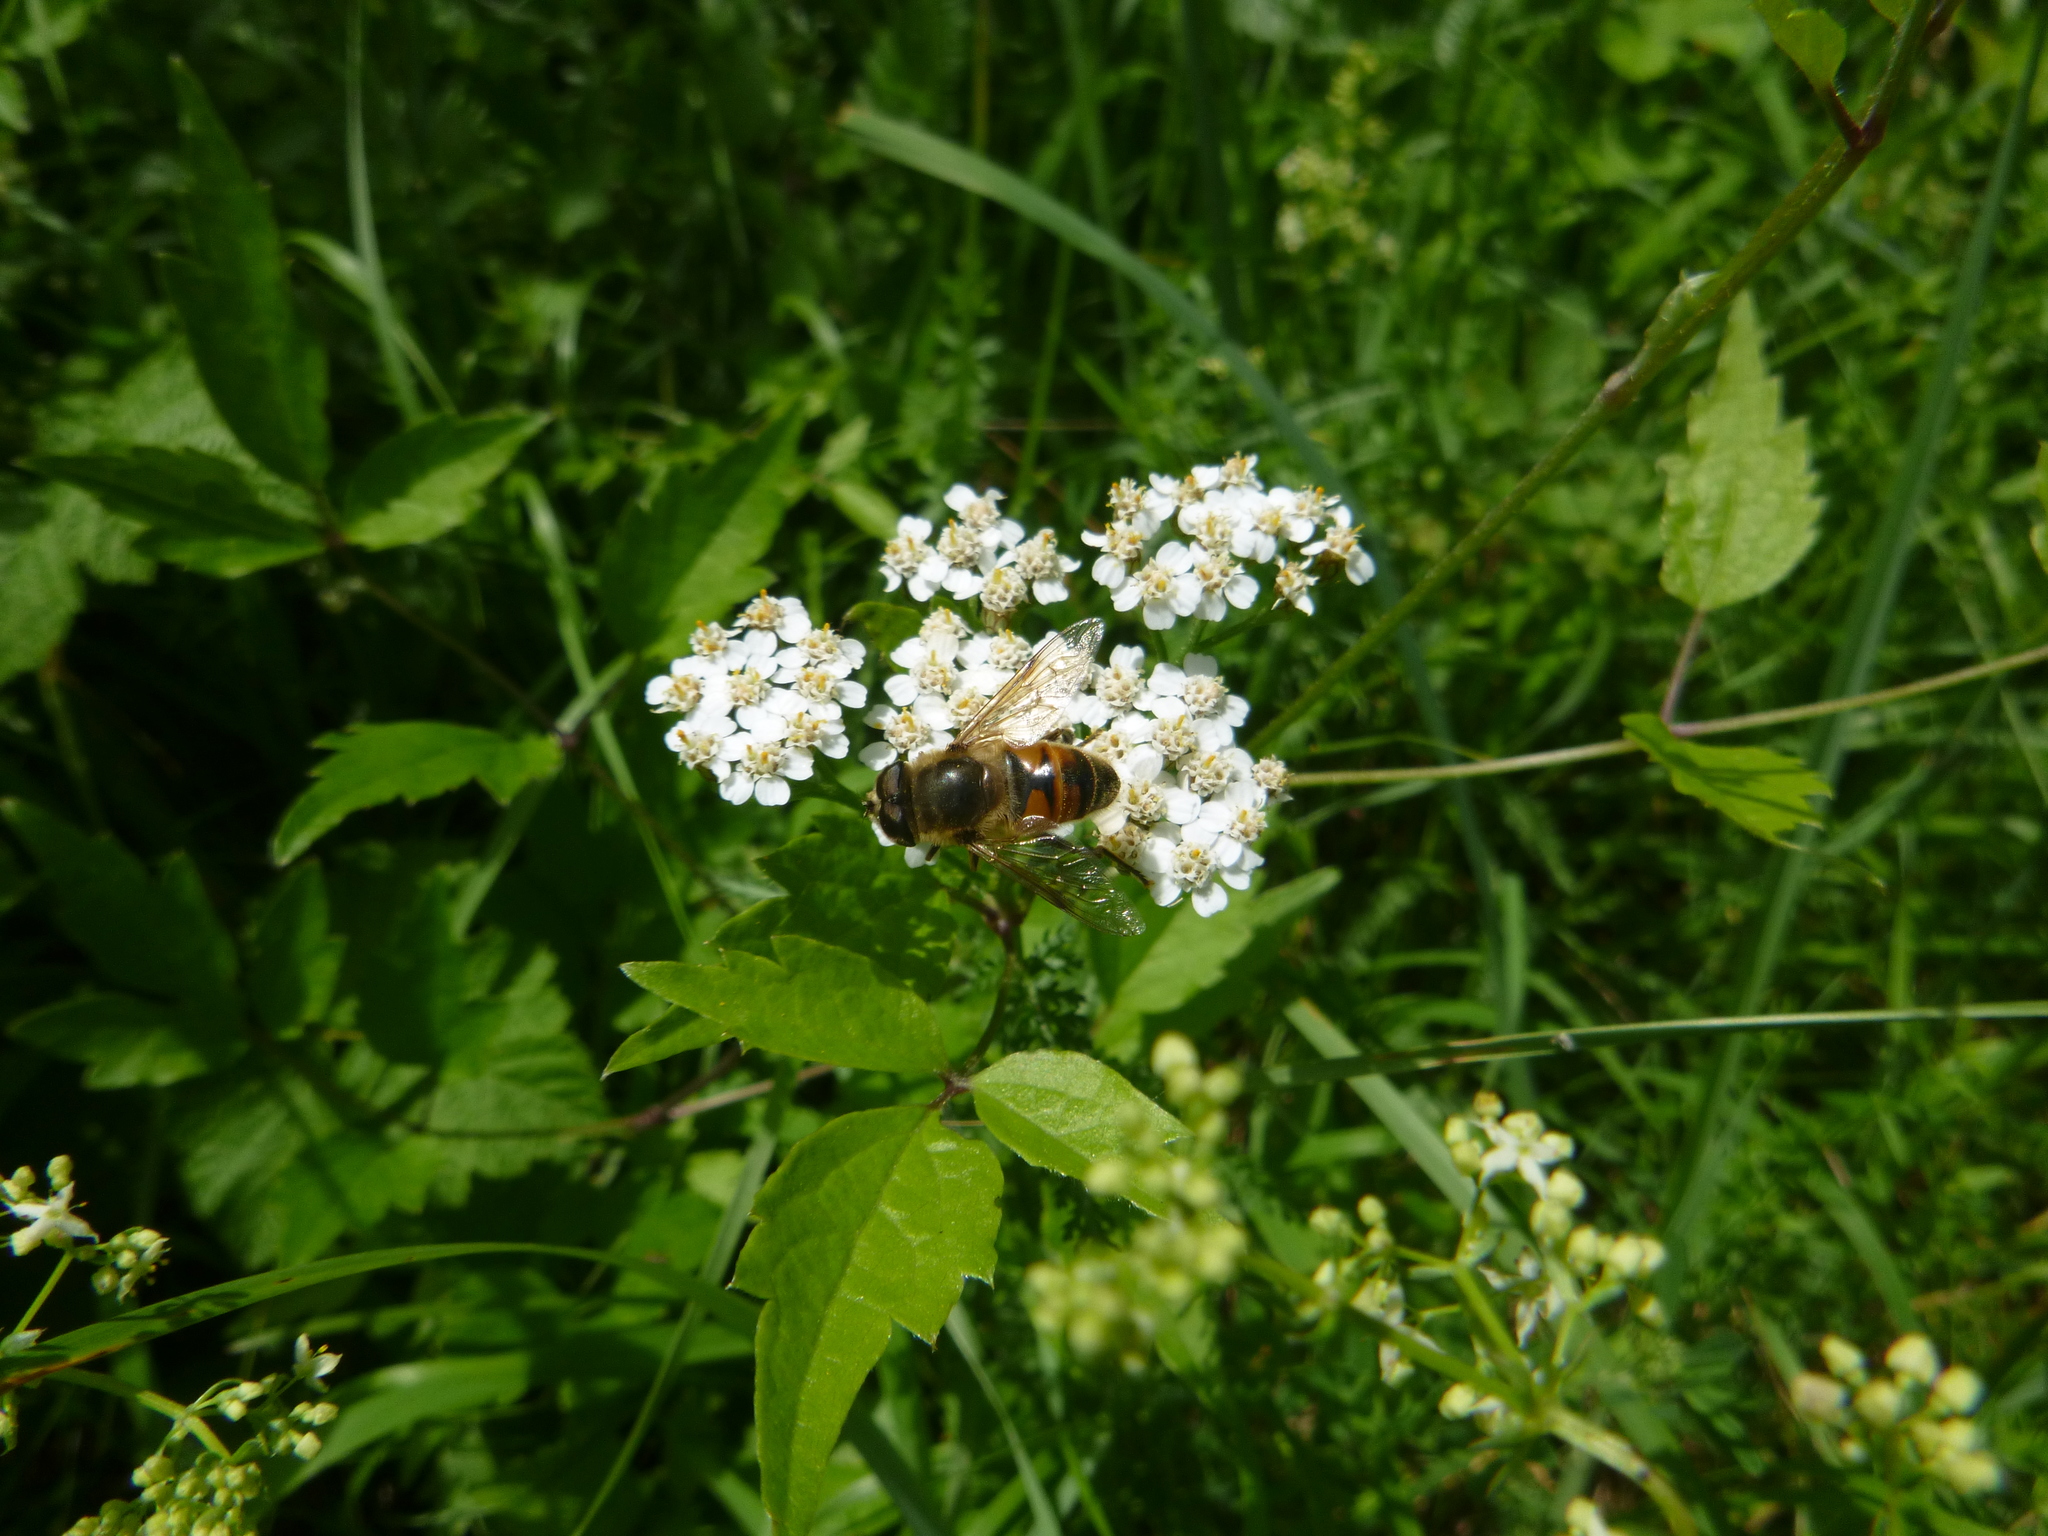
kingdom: Animalia
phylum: Arthropoda
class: Insecta
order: Diptera
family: Syrphidae
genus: Eristalis
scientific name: Eristalis tenax
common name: Drone fly
